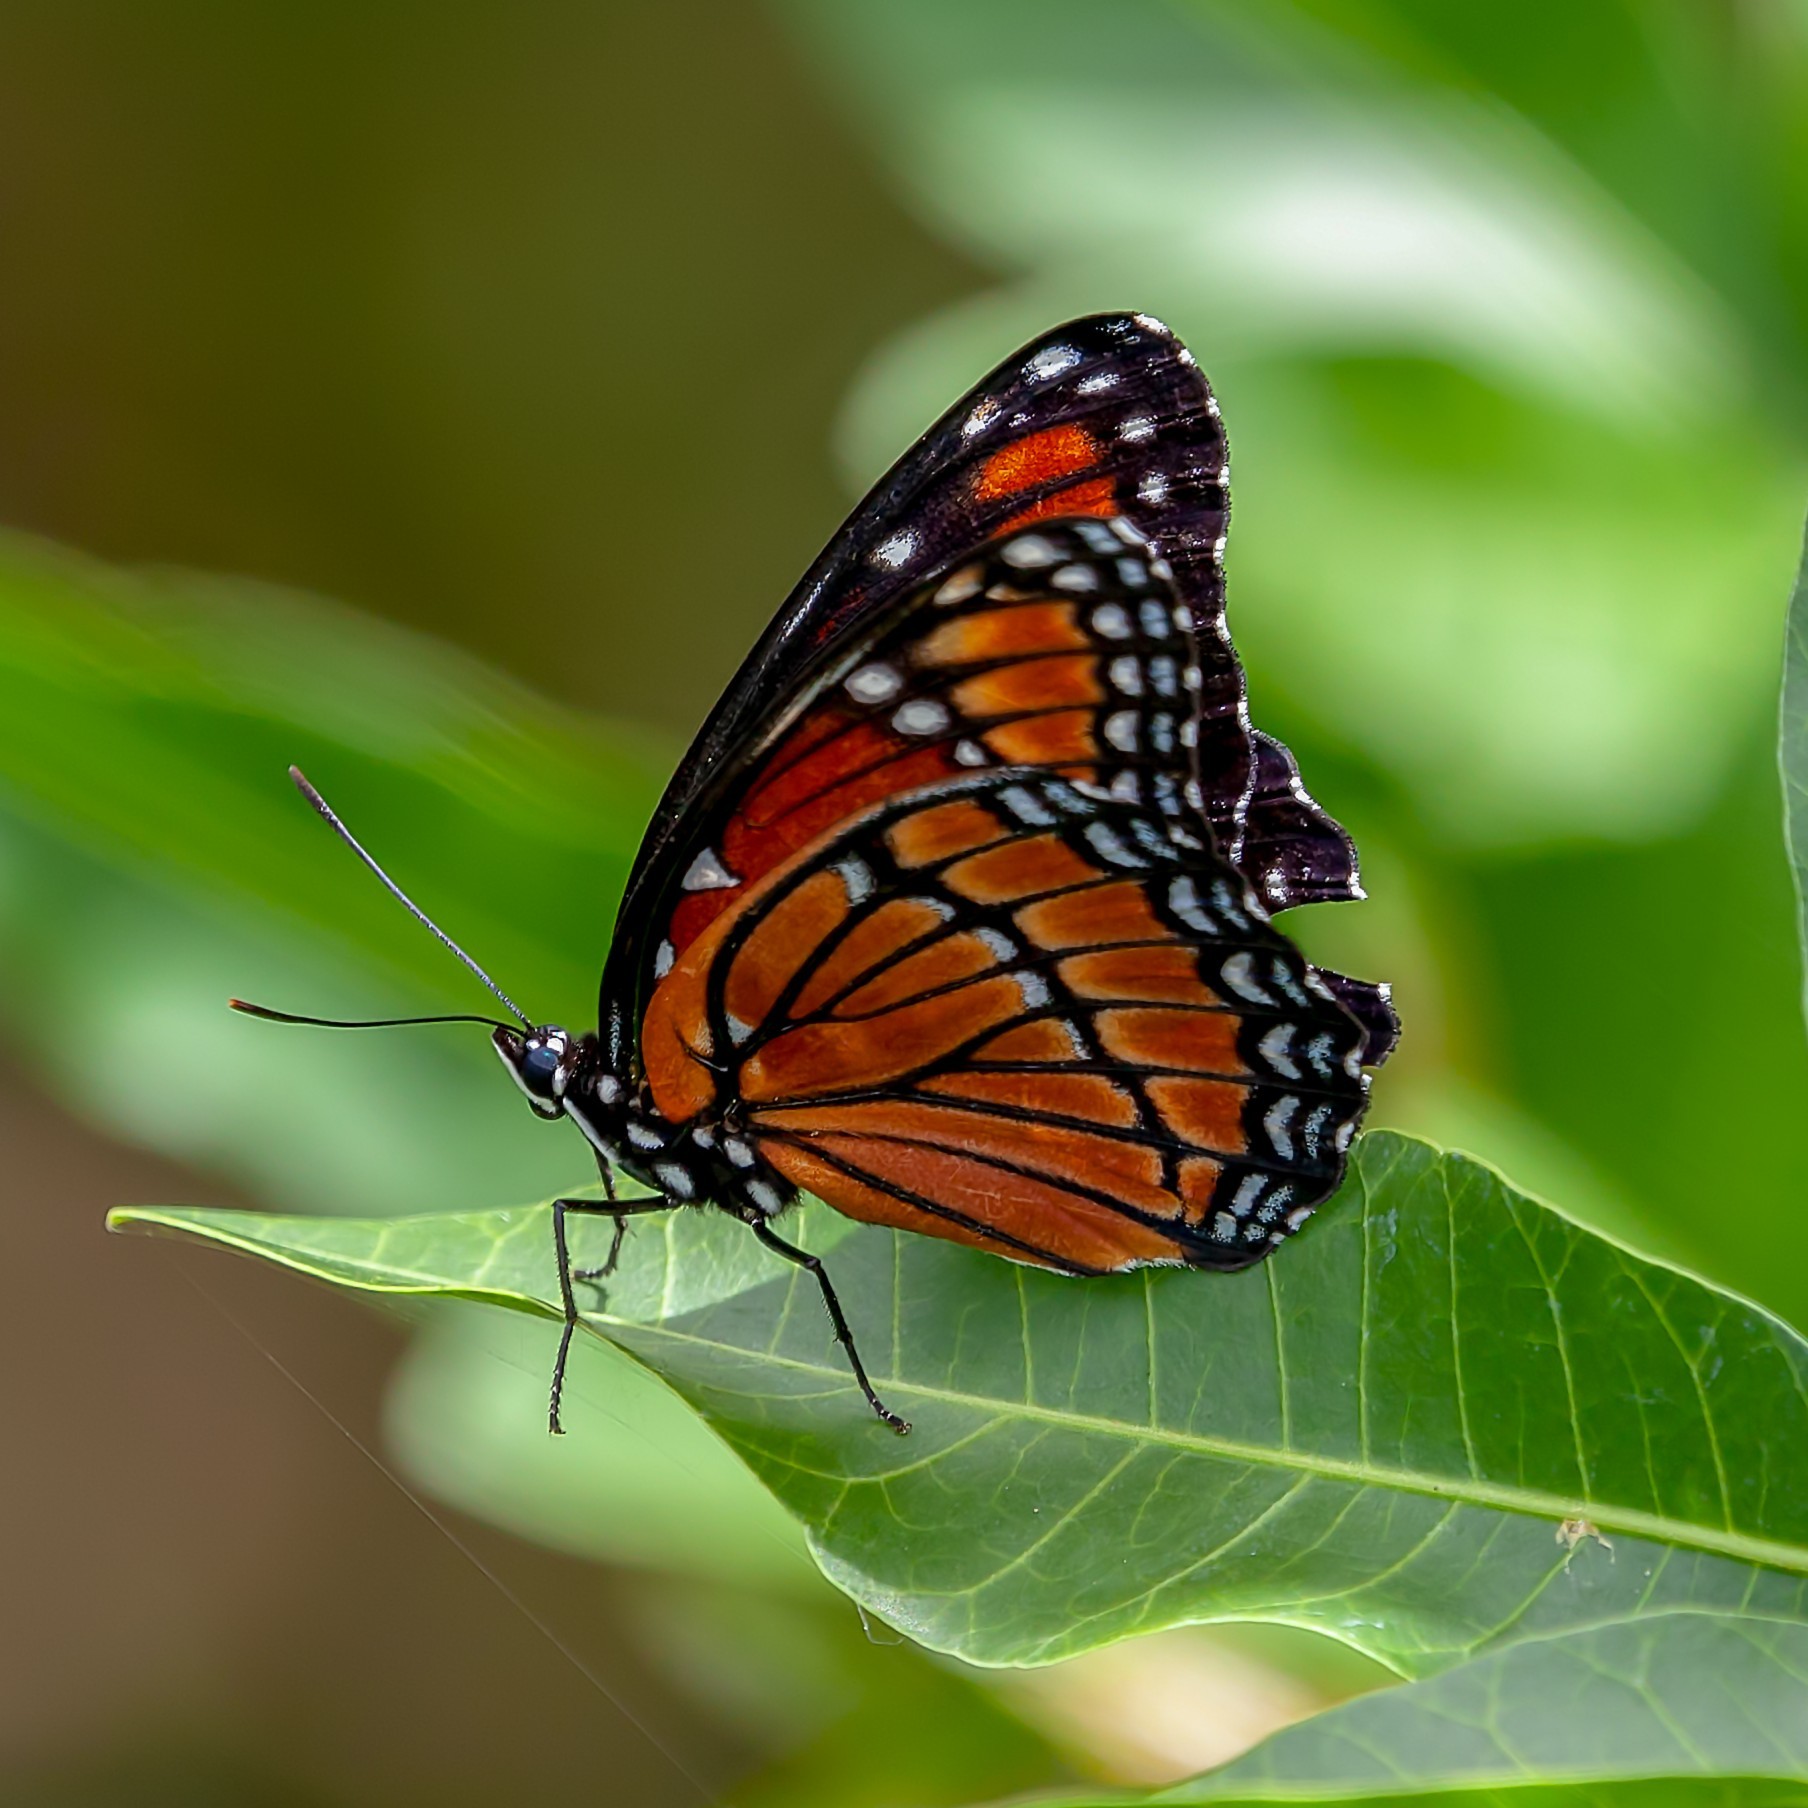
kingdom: Animalia
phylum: Arthropoda
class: Insecta
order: Lepidoptera
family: Nymphalidae
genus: Limenitis
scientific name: Limenitis archippus
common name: Viceroy
